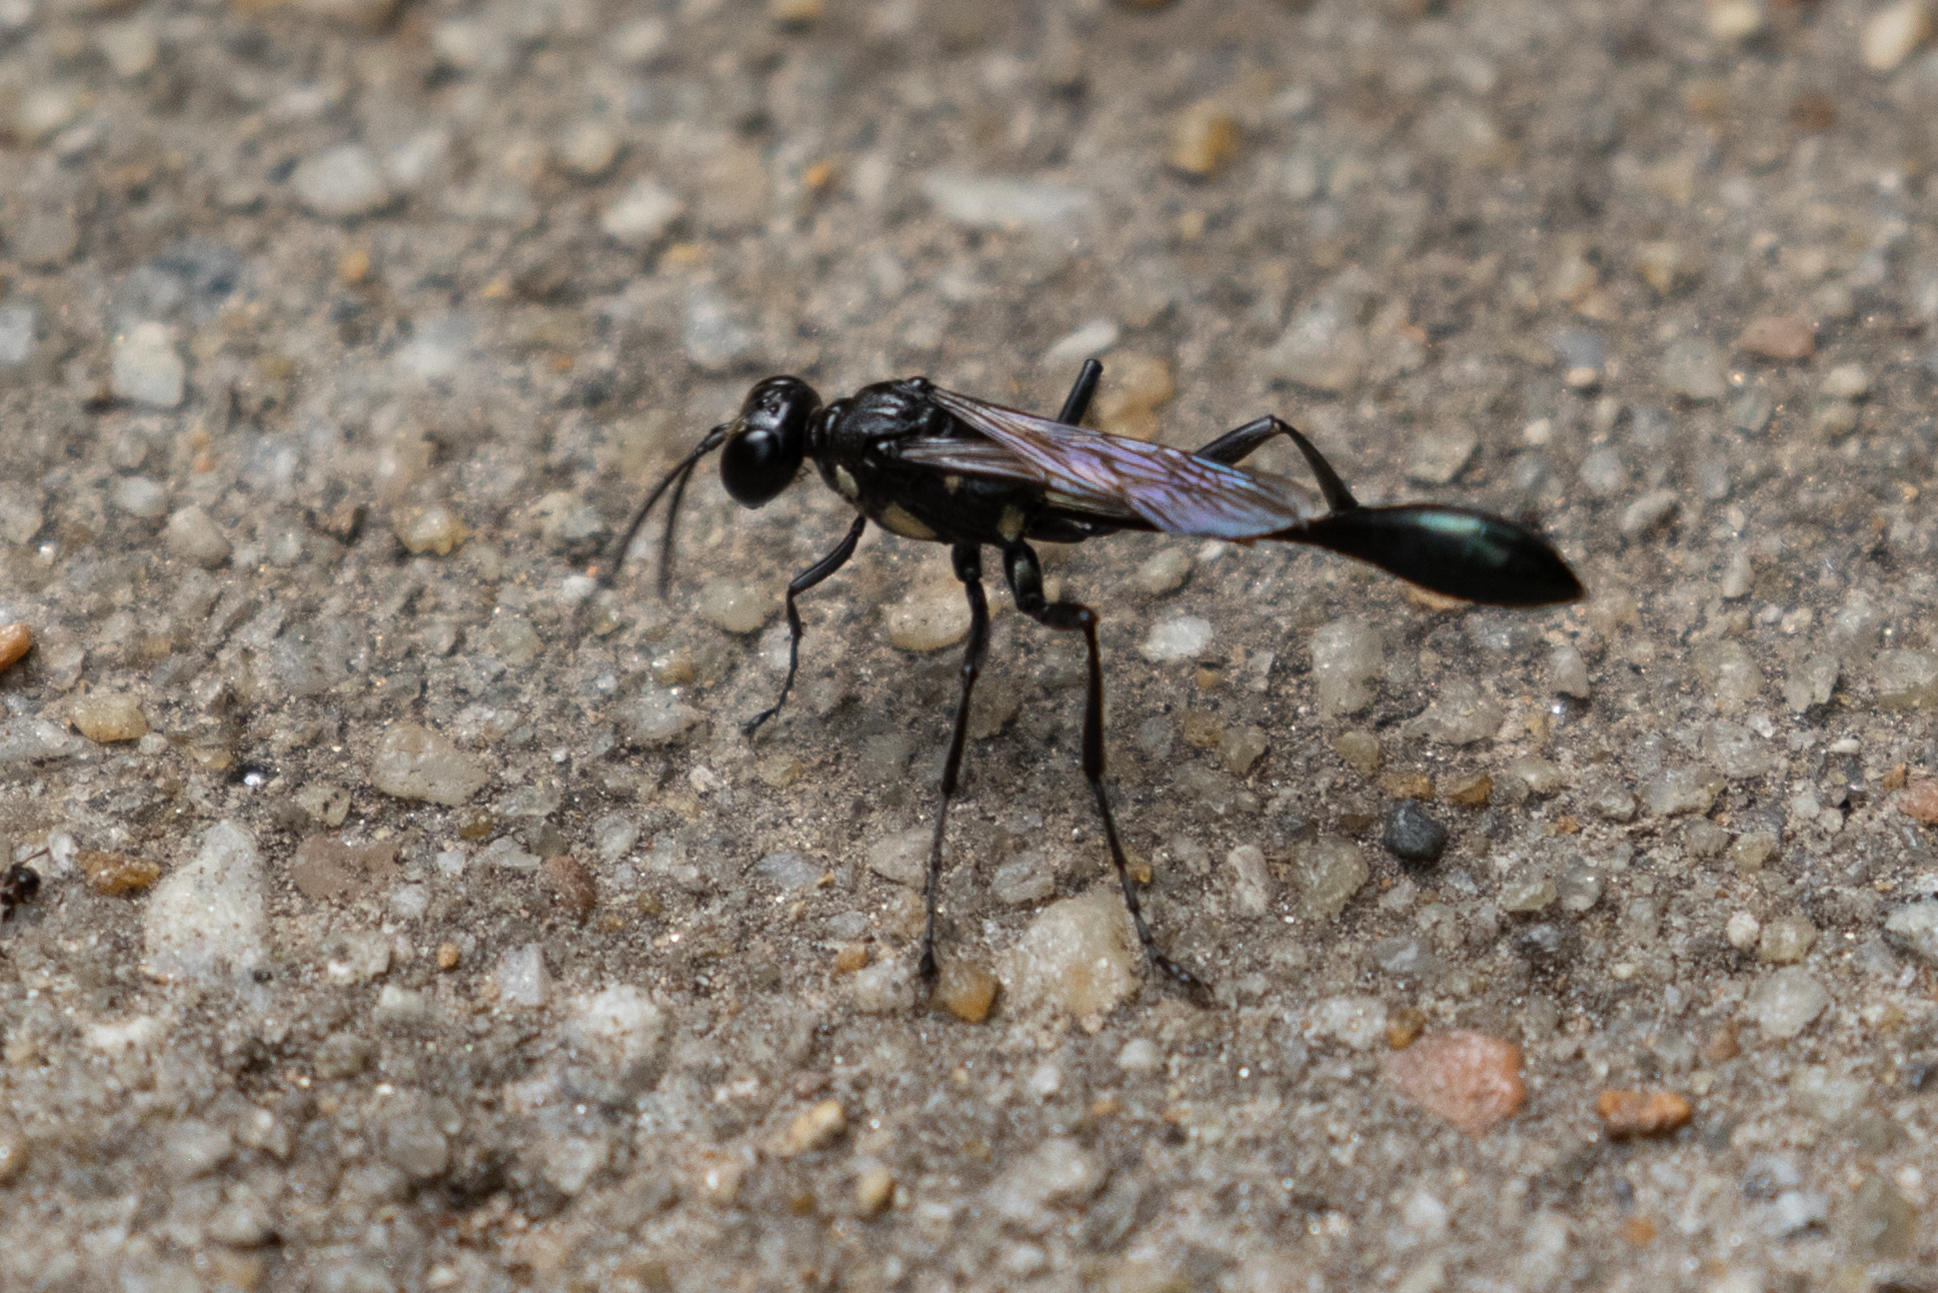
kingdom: Animalia
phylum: Arthropoda
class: Insecta
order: Hymenoptera
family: Sphecidae
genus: Eremnophila
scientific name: Eremnophila aureonotata
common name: Gold-marked thread-waisted wasp
